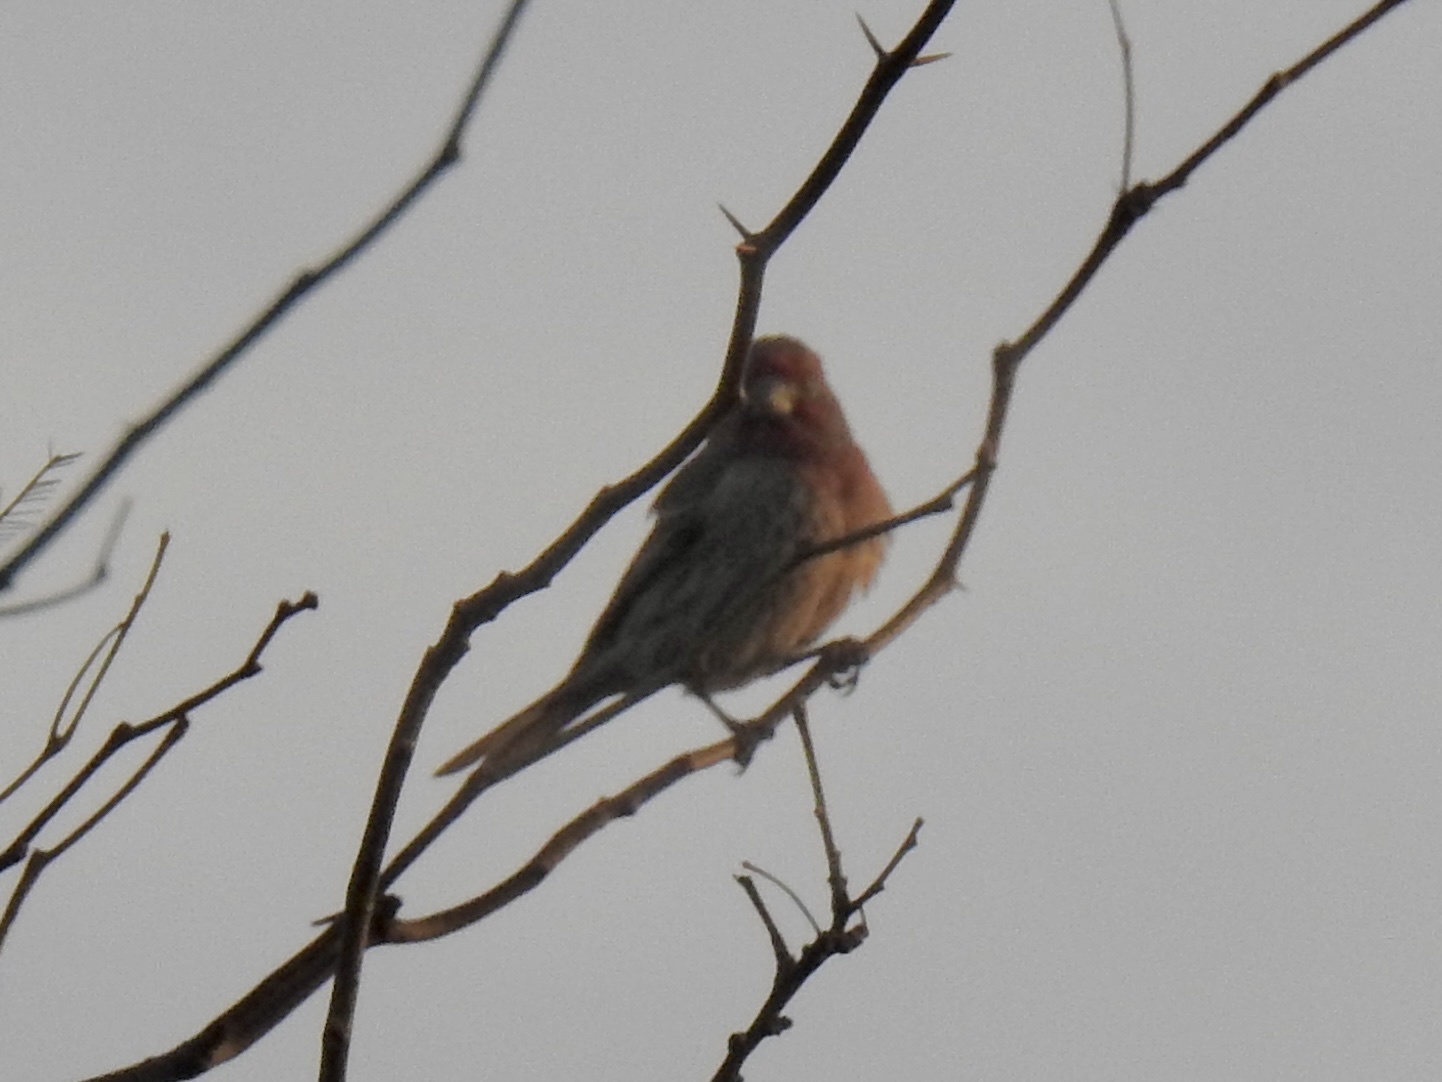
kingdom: Animalia
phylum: Chordata
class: Aves
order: Passeriformes
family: Fringillidae
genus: Haemorhous
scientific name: Haemorhous mexicanus
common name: House finch
